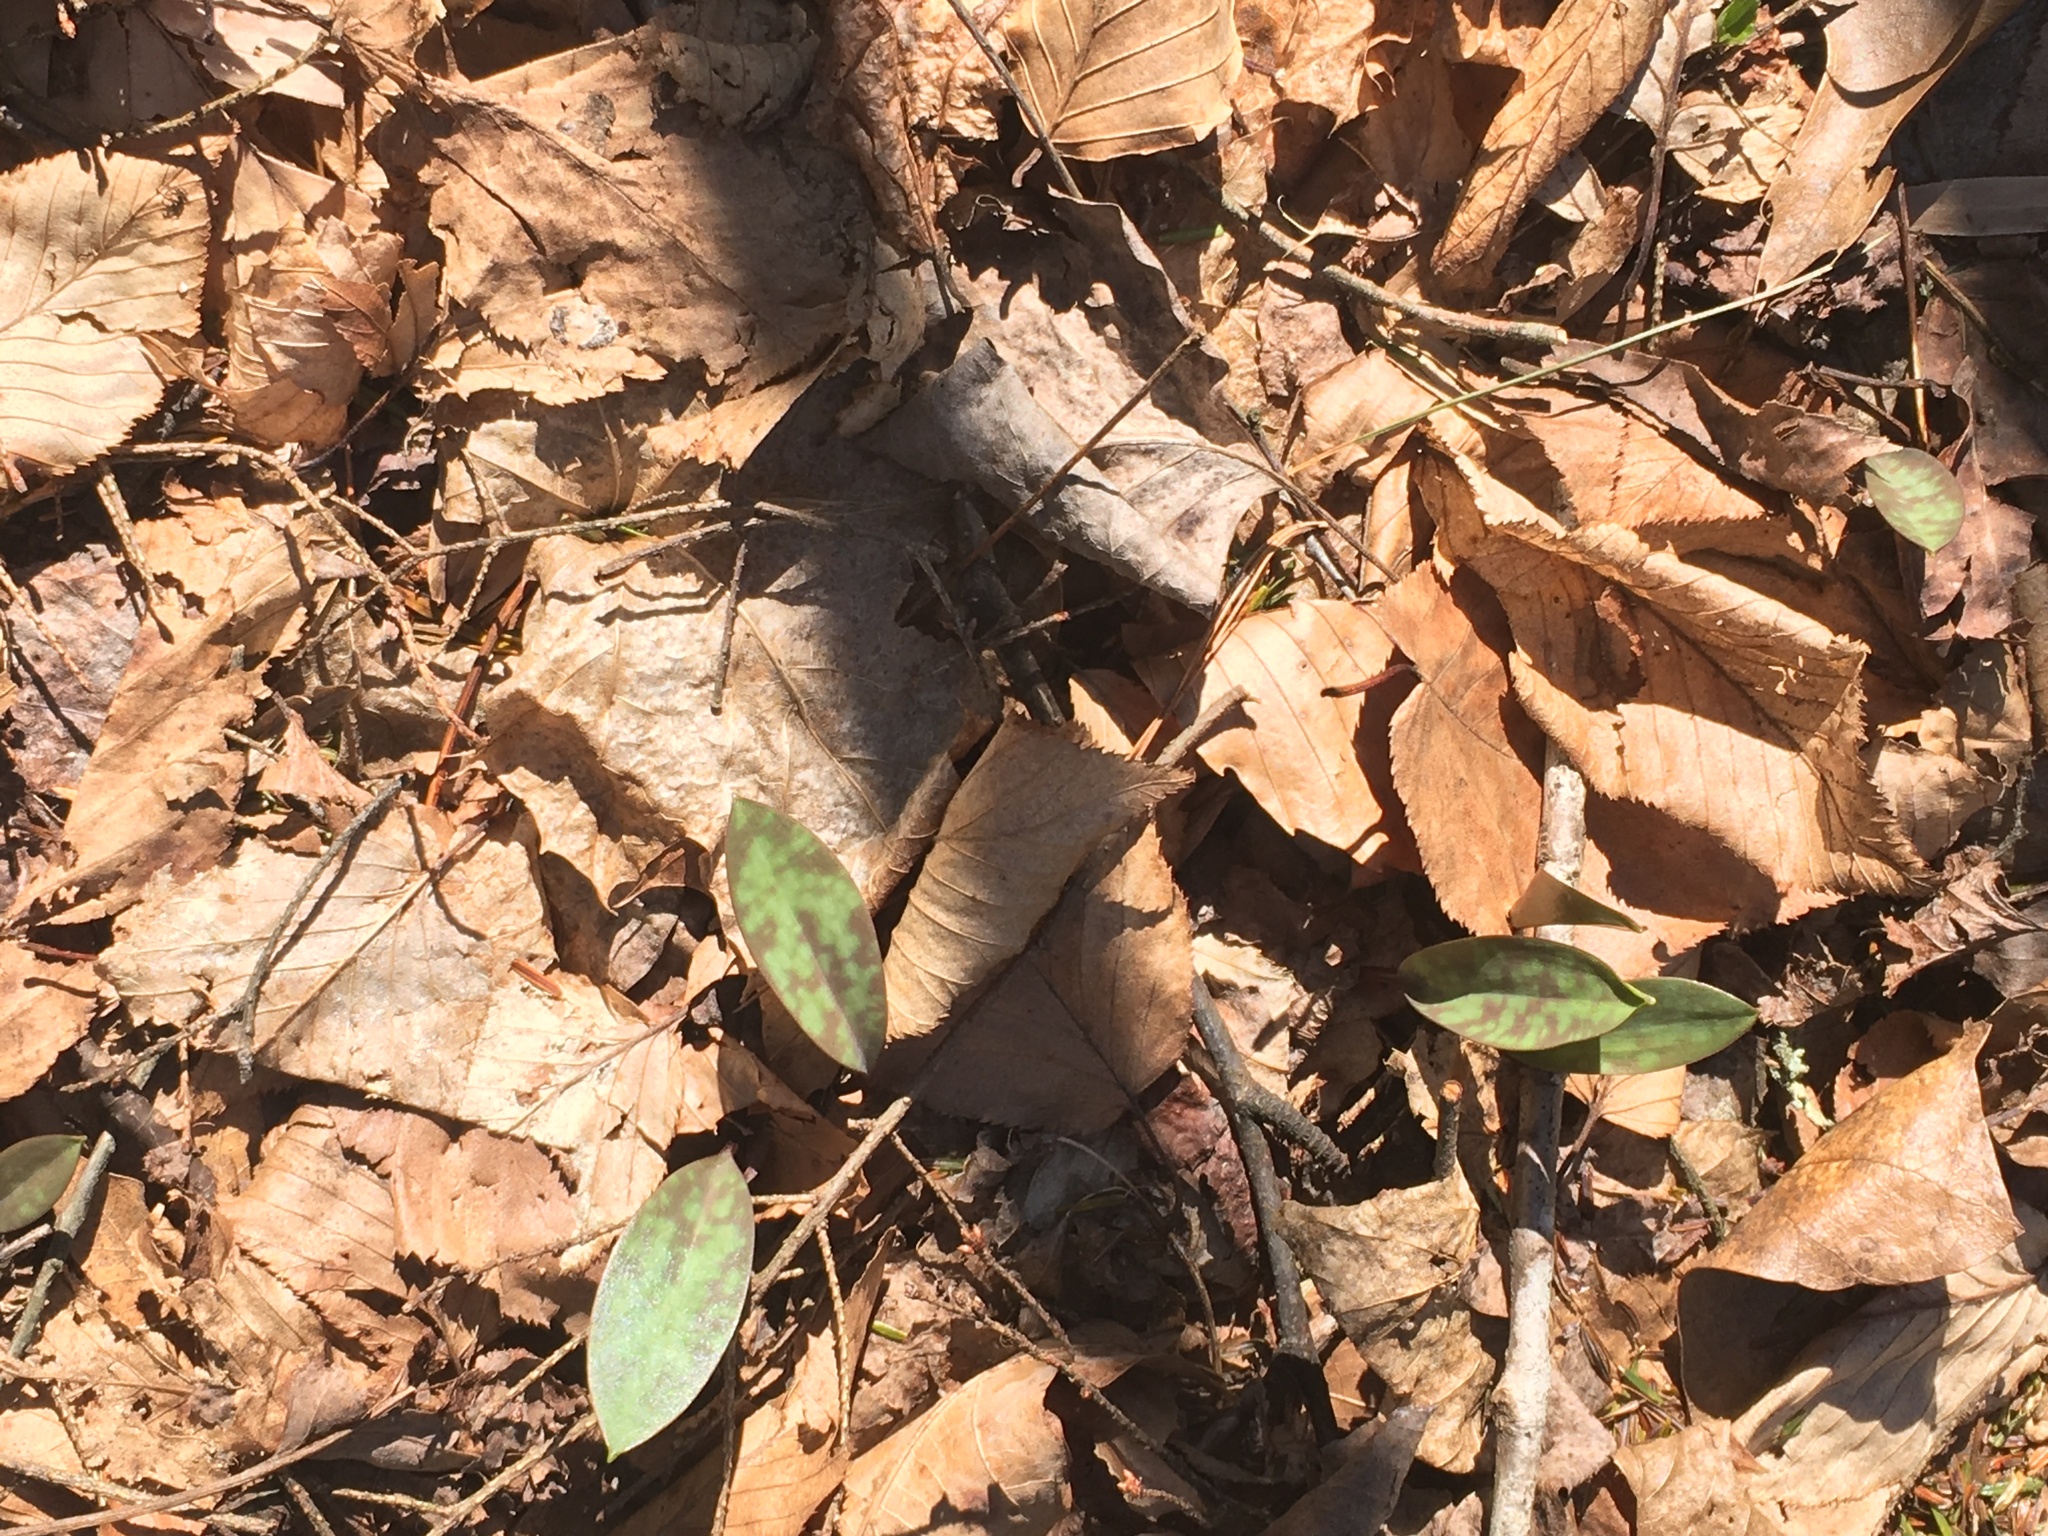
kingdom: Plantae
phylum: Tracheophyta
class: Liliopsida
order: Liliales
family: Liliaceae
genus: Erythronium
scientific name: Erythronium americanum
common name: Yellow adder's-tongue
